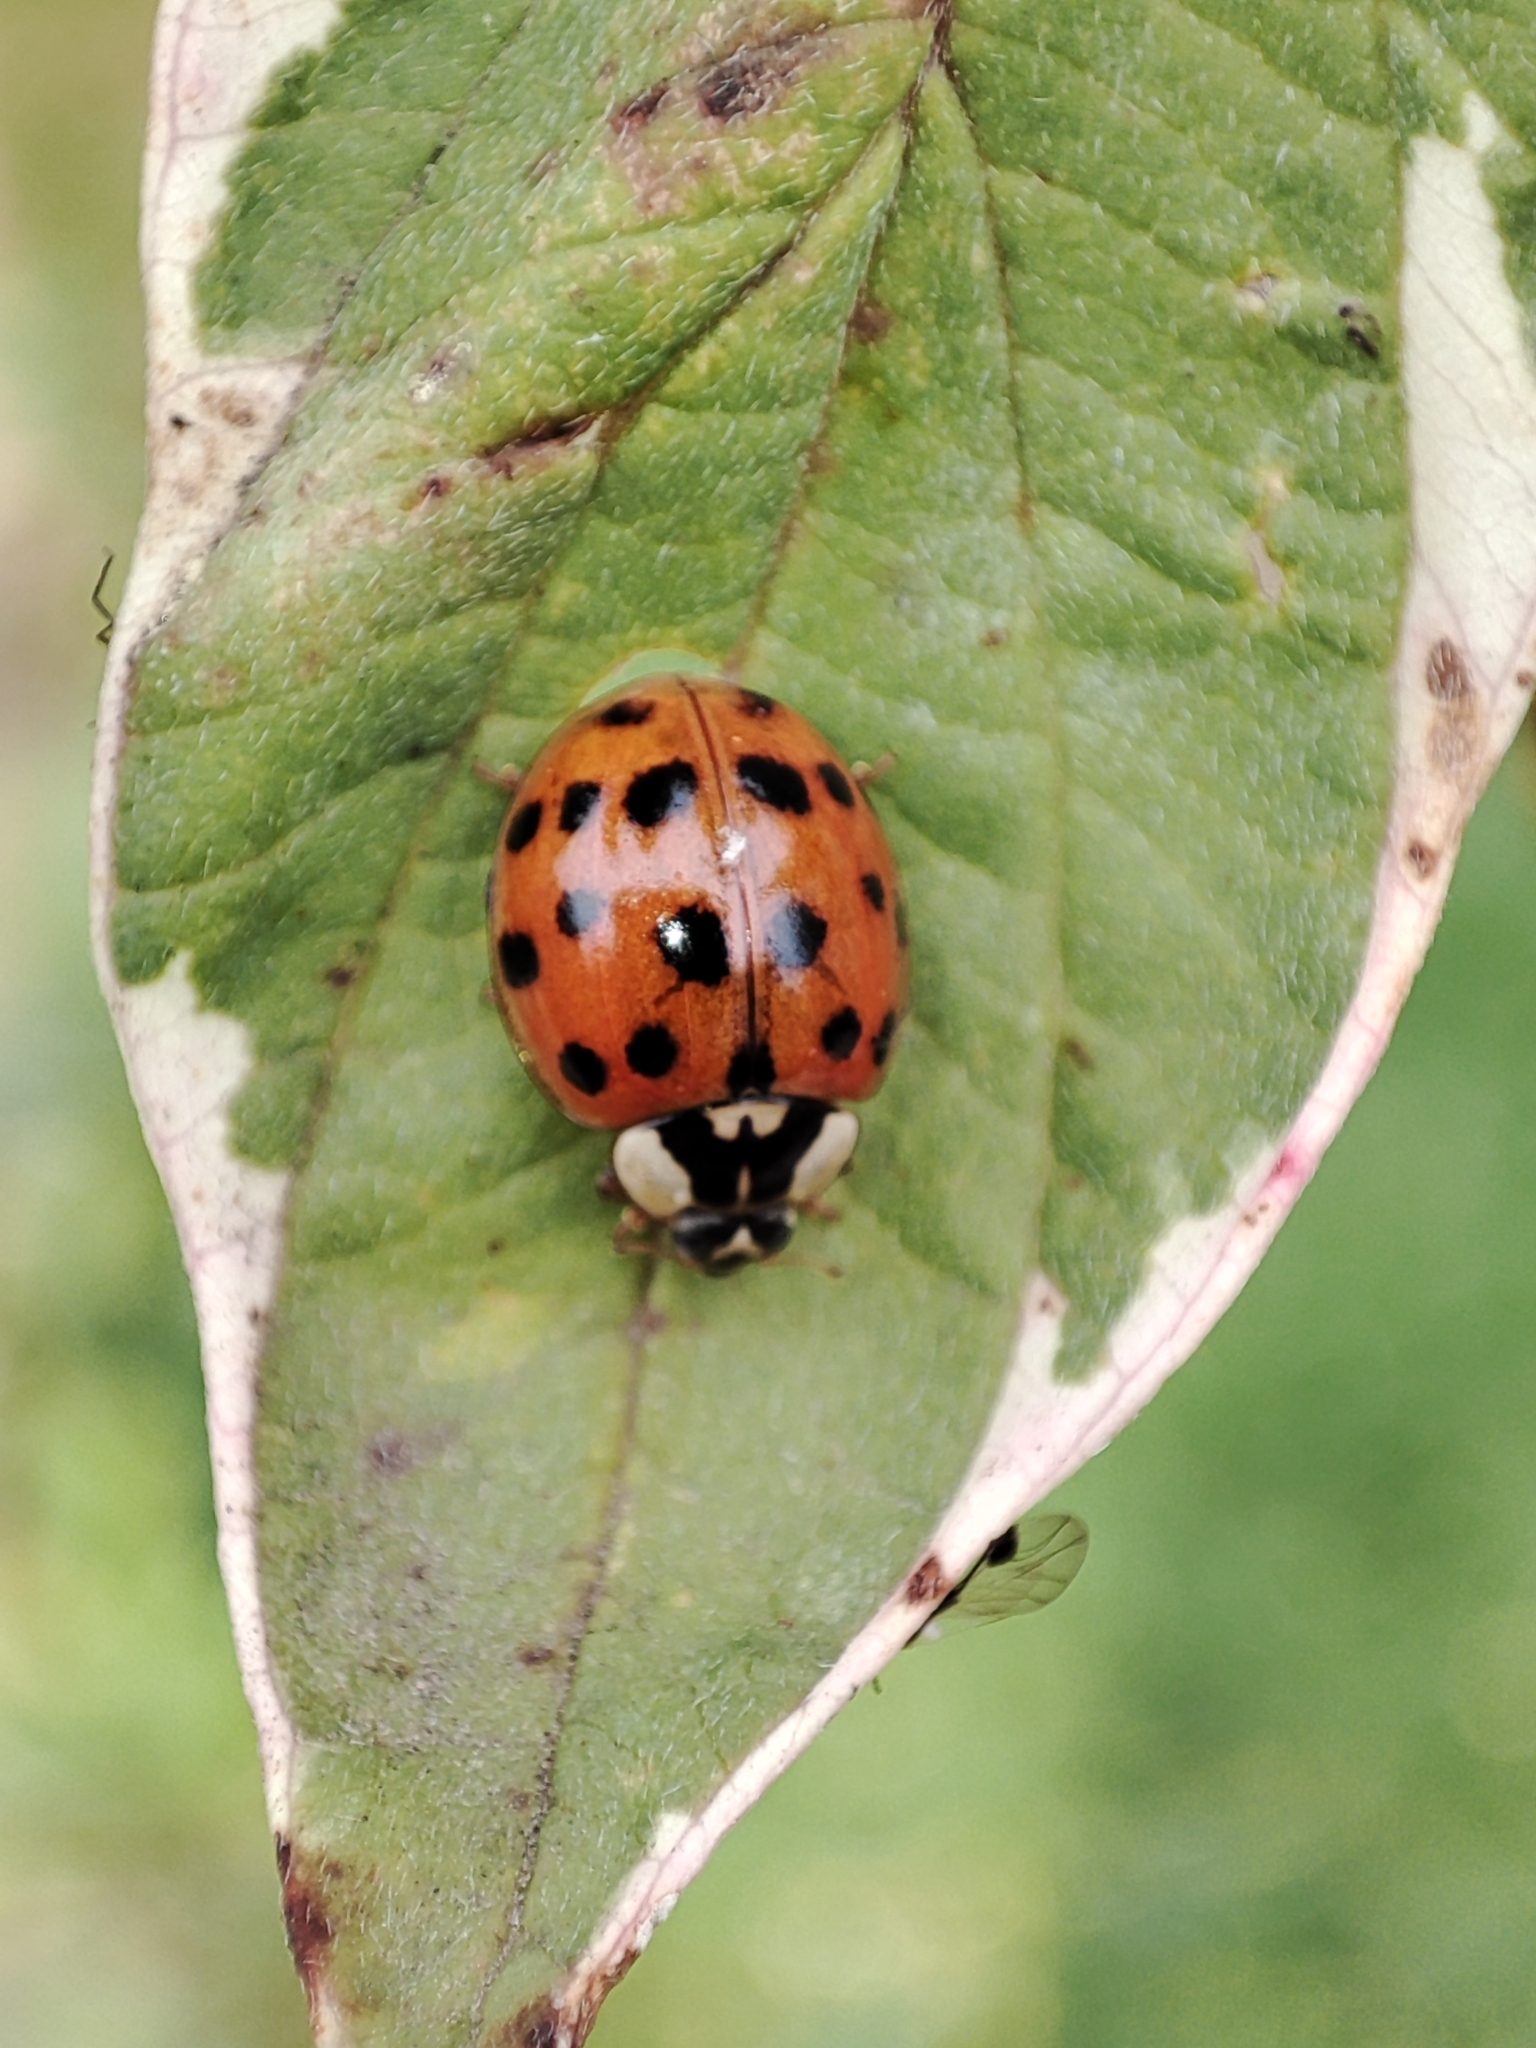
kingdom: Animalia
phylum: Arthropoda
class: Insecta
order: Coleoptera
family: Coccinellidae
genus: Harmonia
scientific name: Harmonia axyridis
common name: Harlequin ladybird
